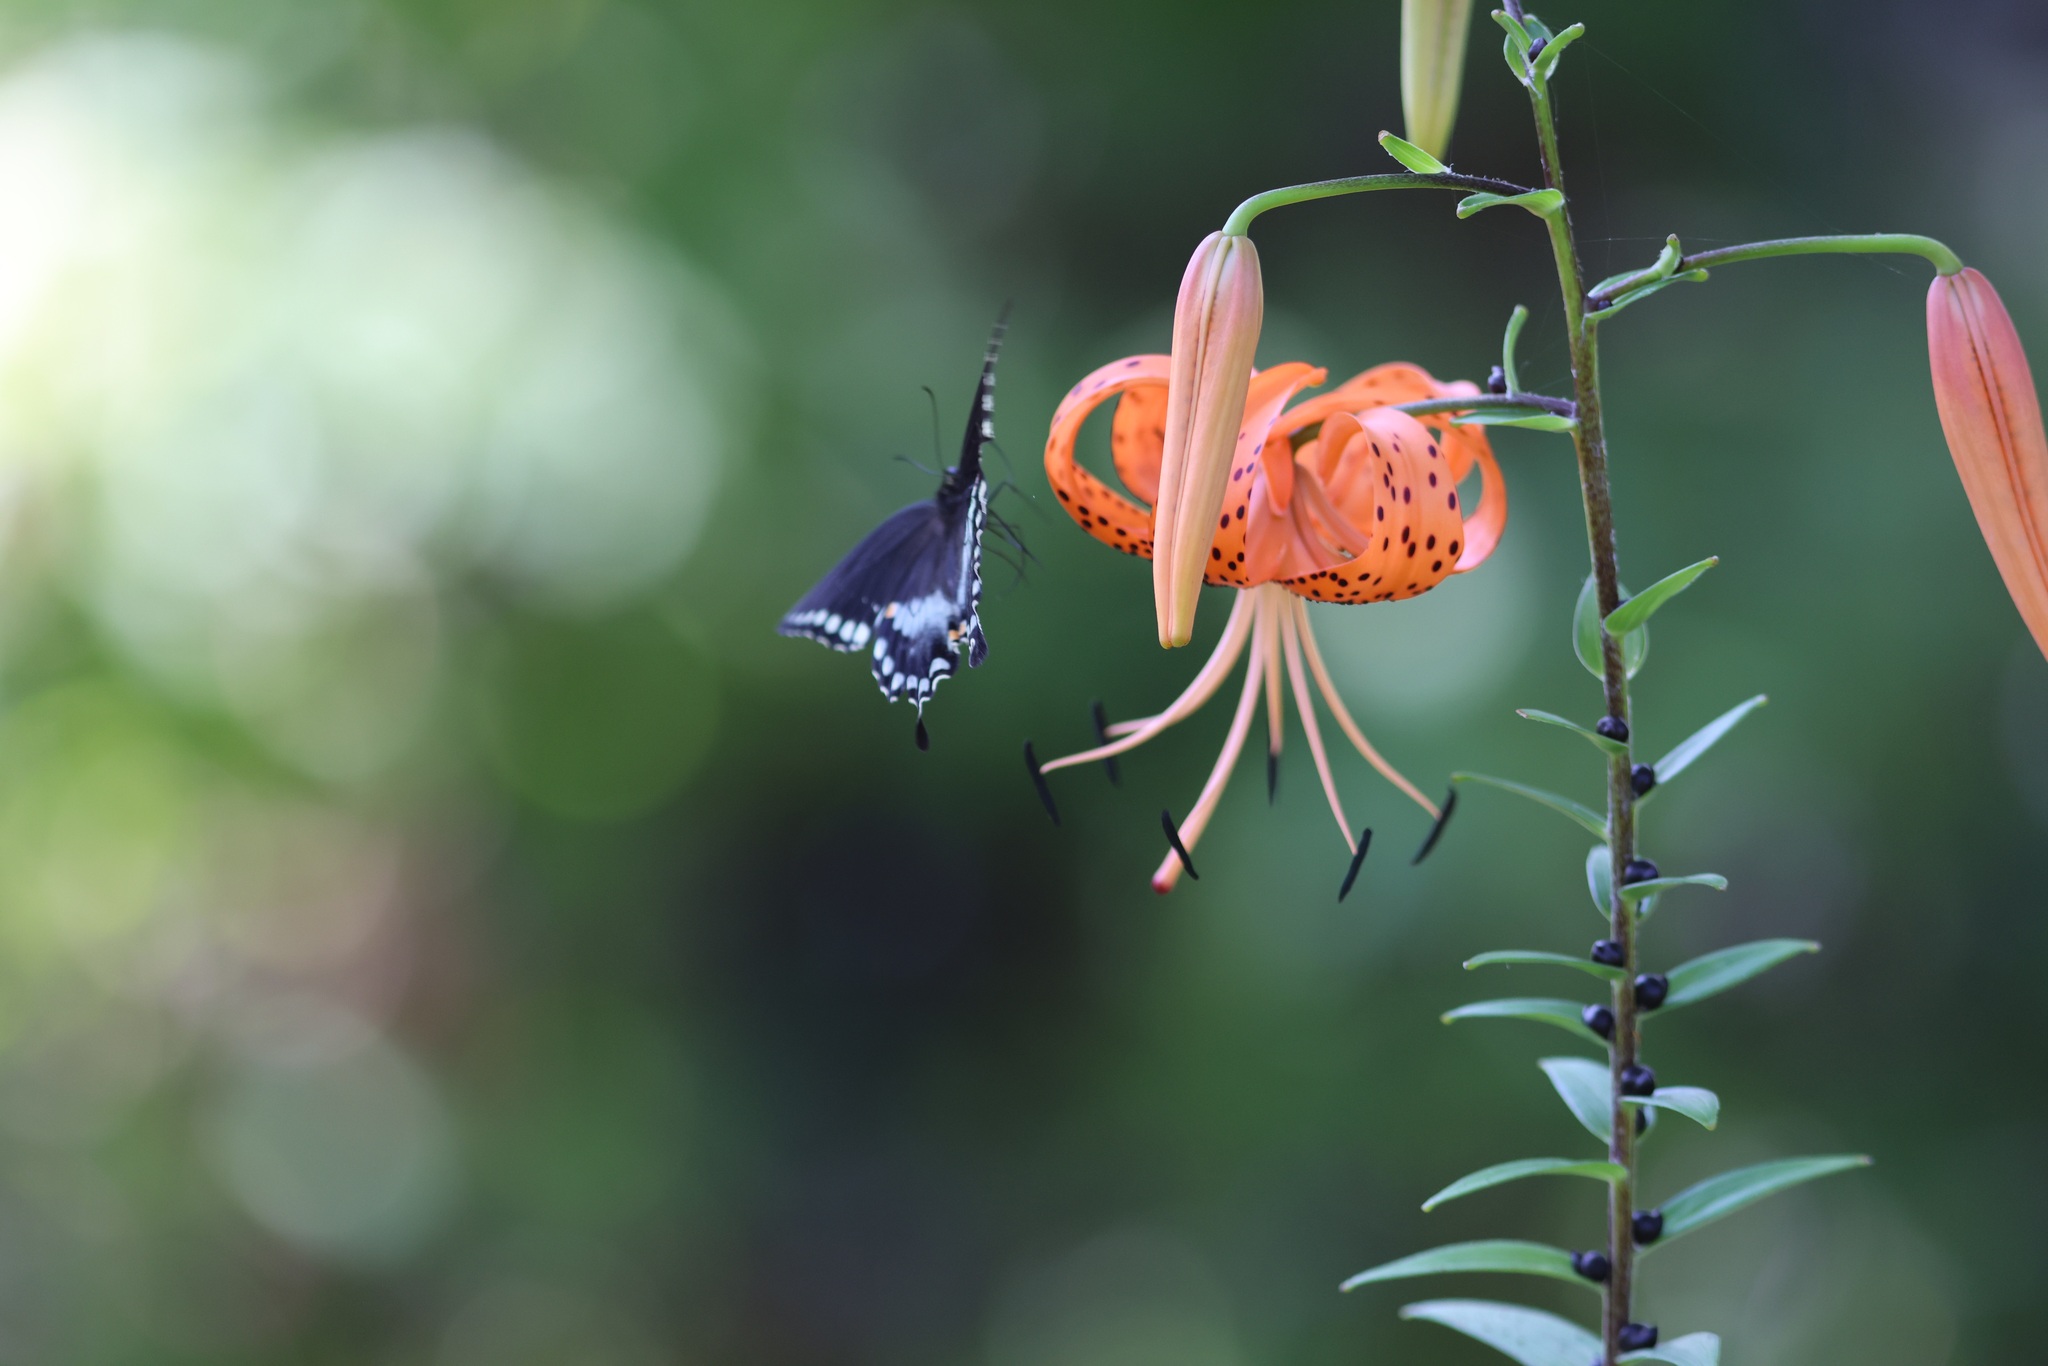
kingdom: Animalia
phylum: Arthropoda
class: Insecta
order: Lepidoptera
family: Papilionidae
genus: Papilio
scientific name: Papilio troilus
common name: Spicebush swallowtail
